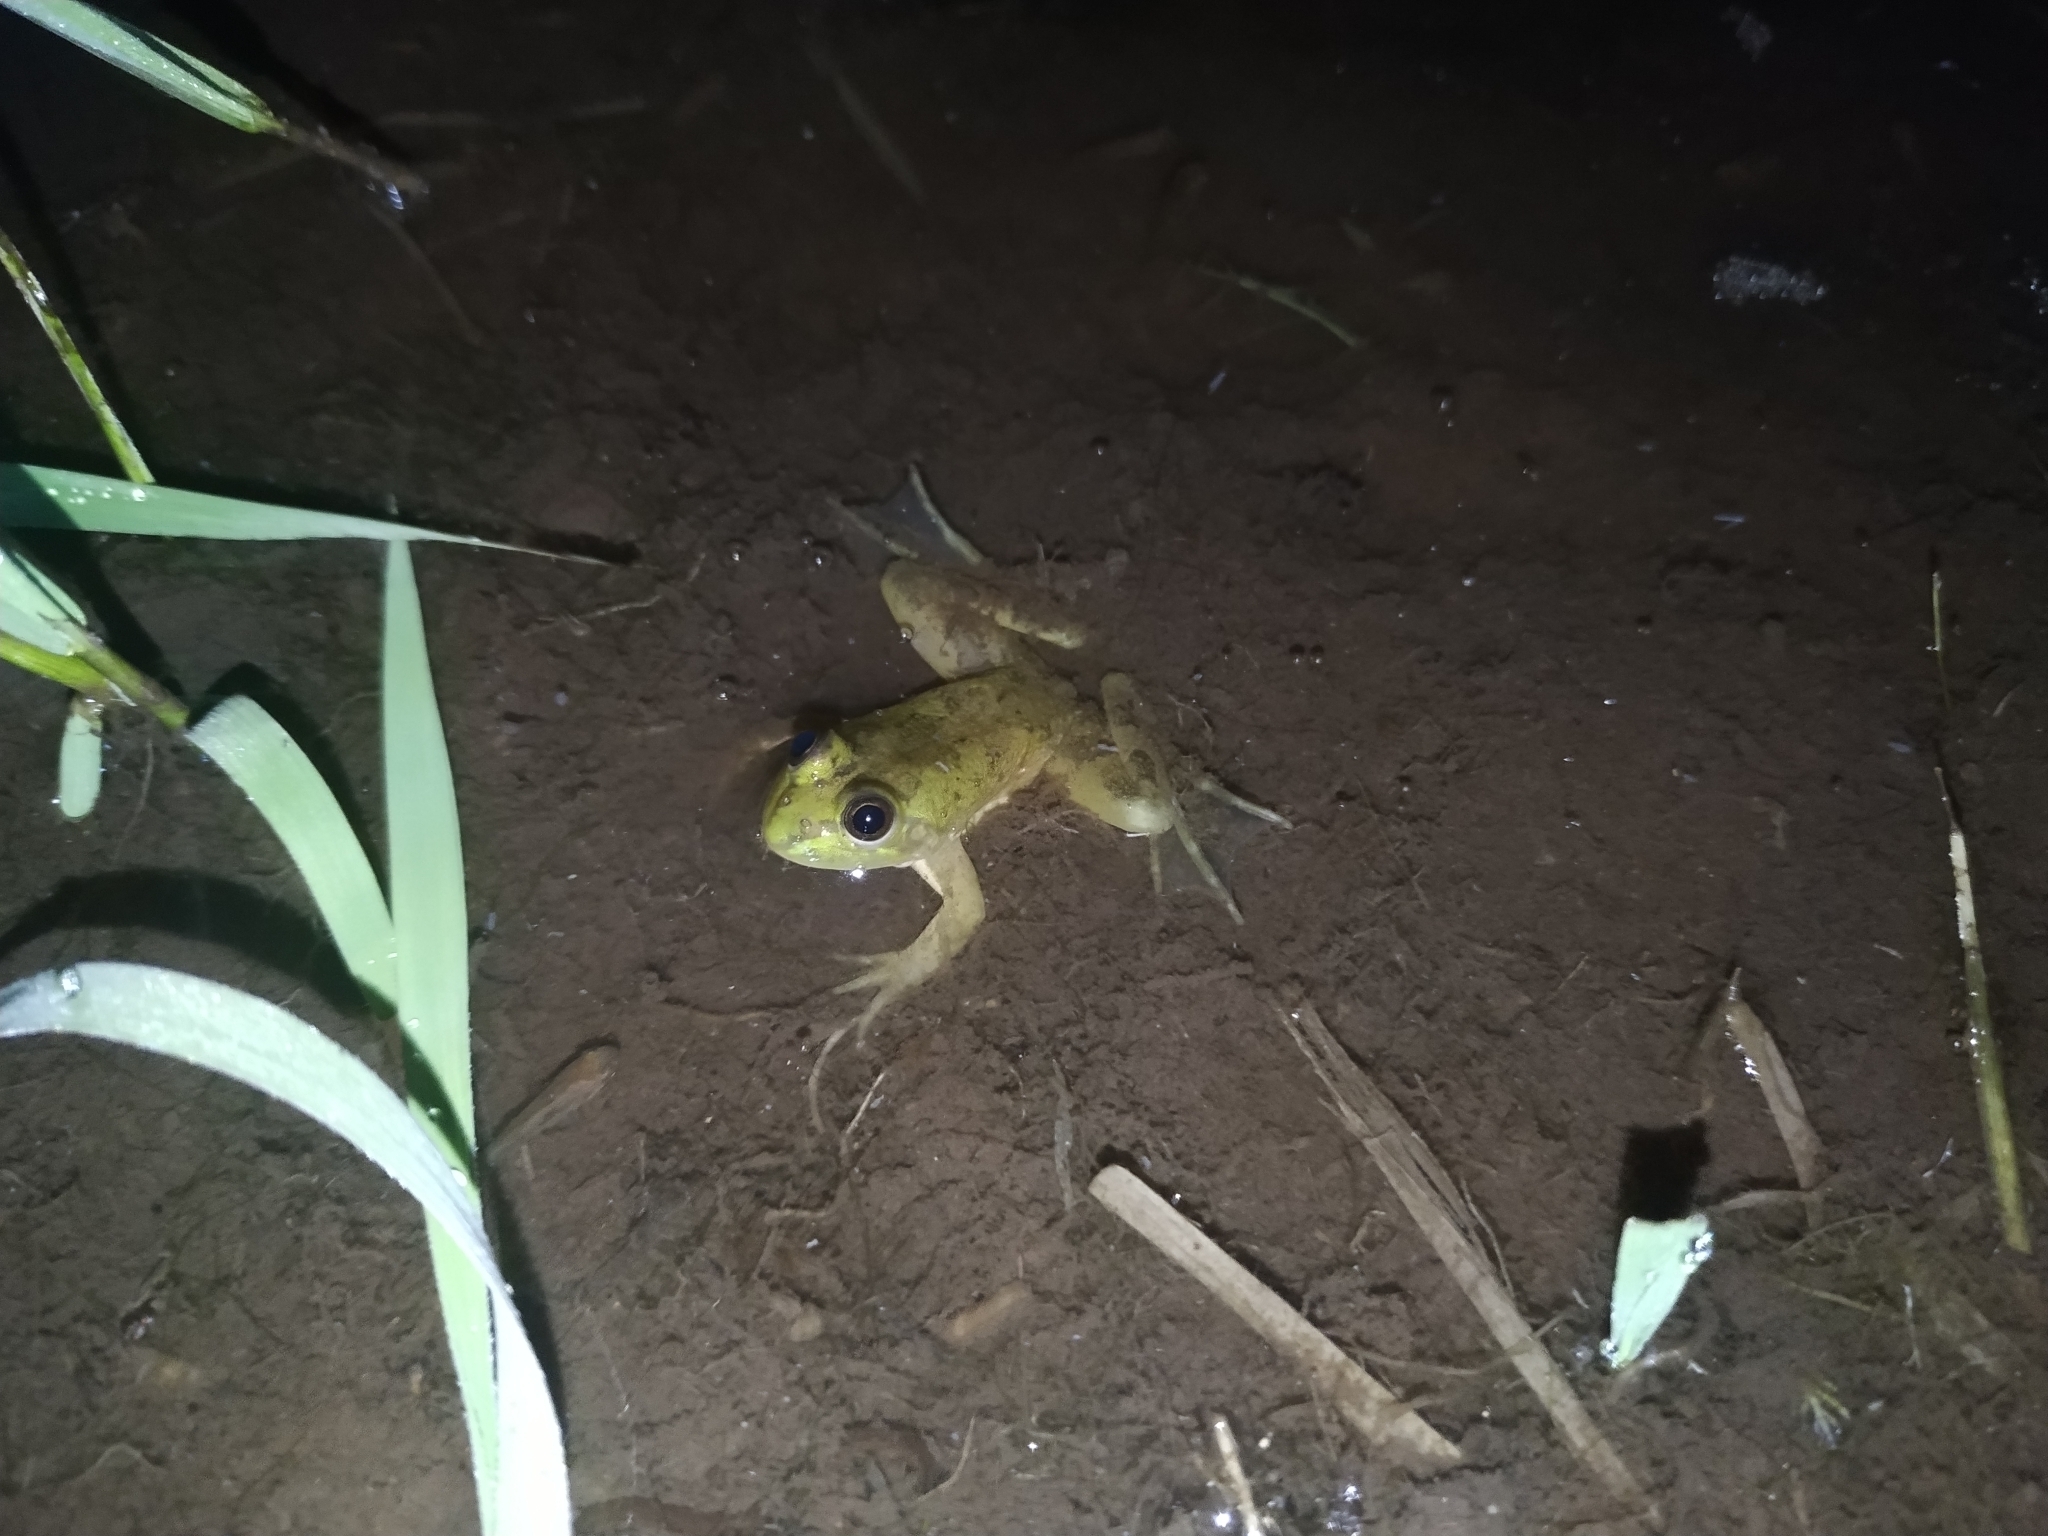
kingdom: Animalia
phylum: Chordata
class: Amphibia
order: Anura
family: Hylidae
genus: Pseudis
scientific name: Pseudis minuta
